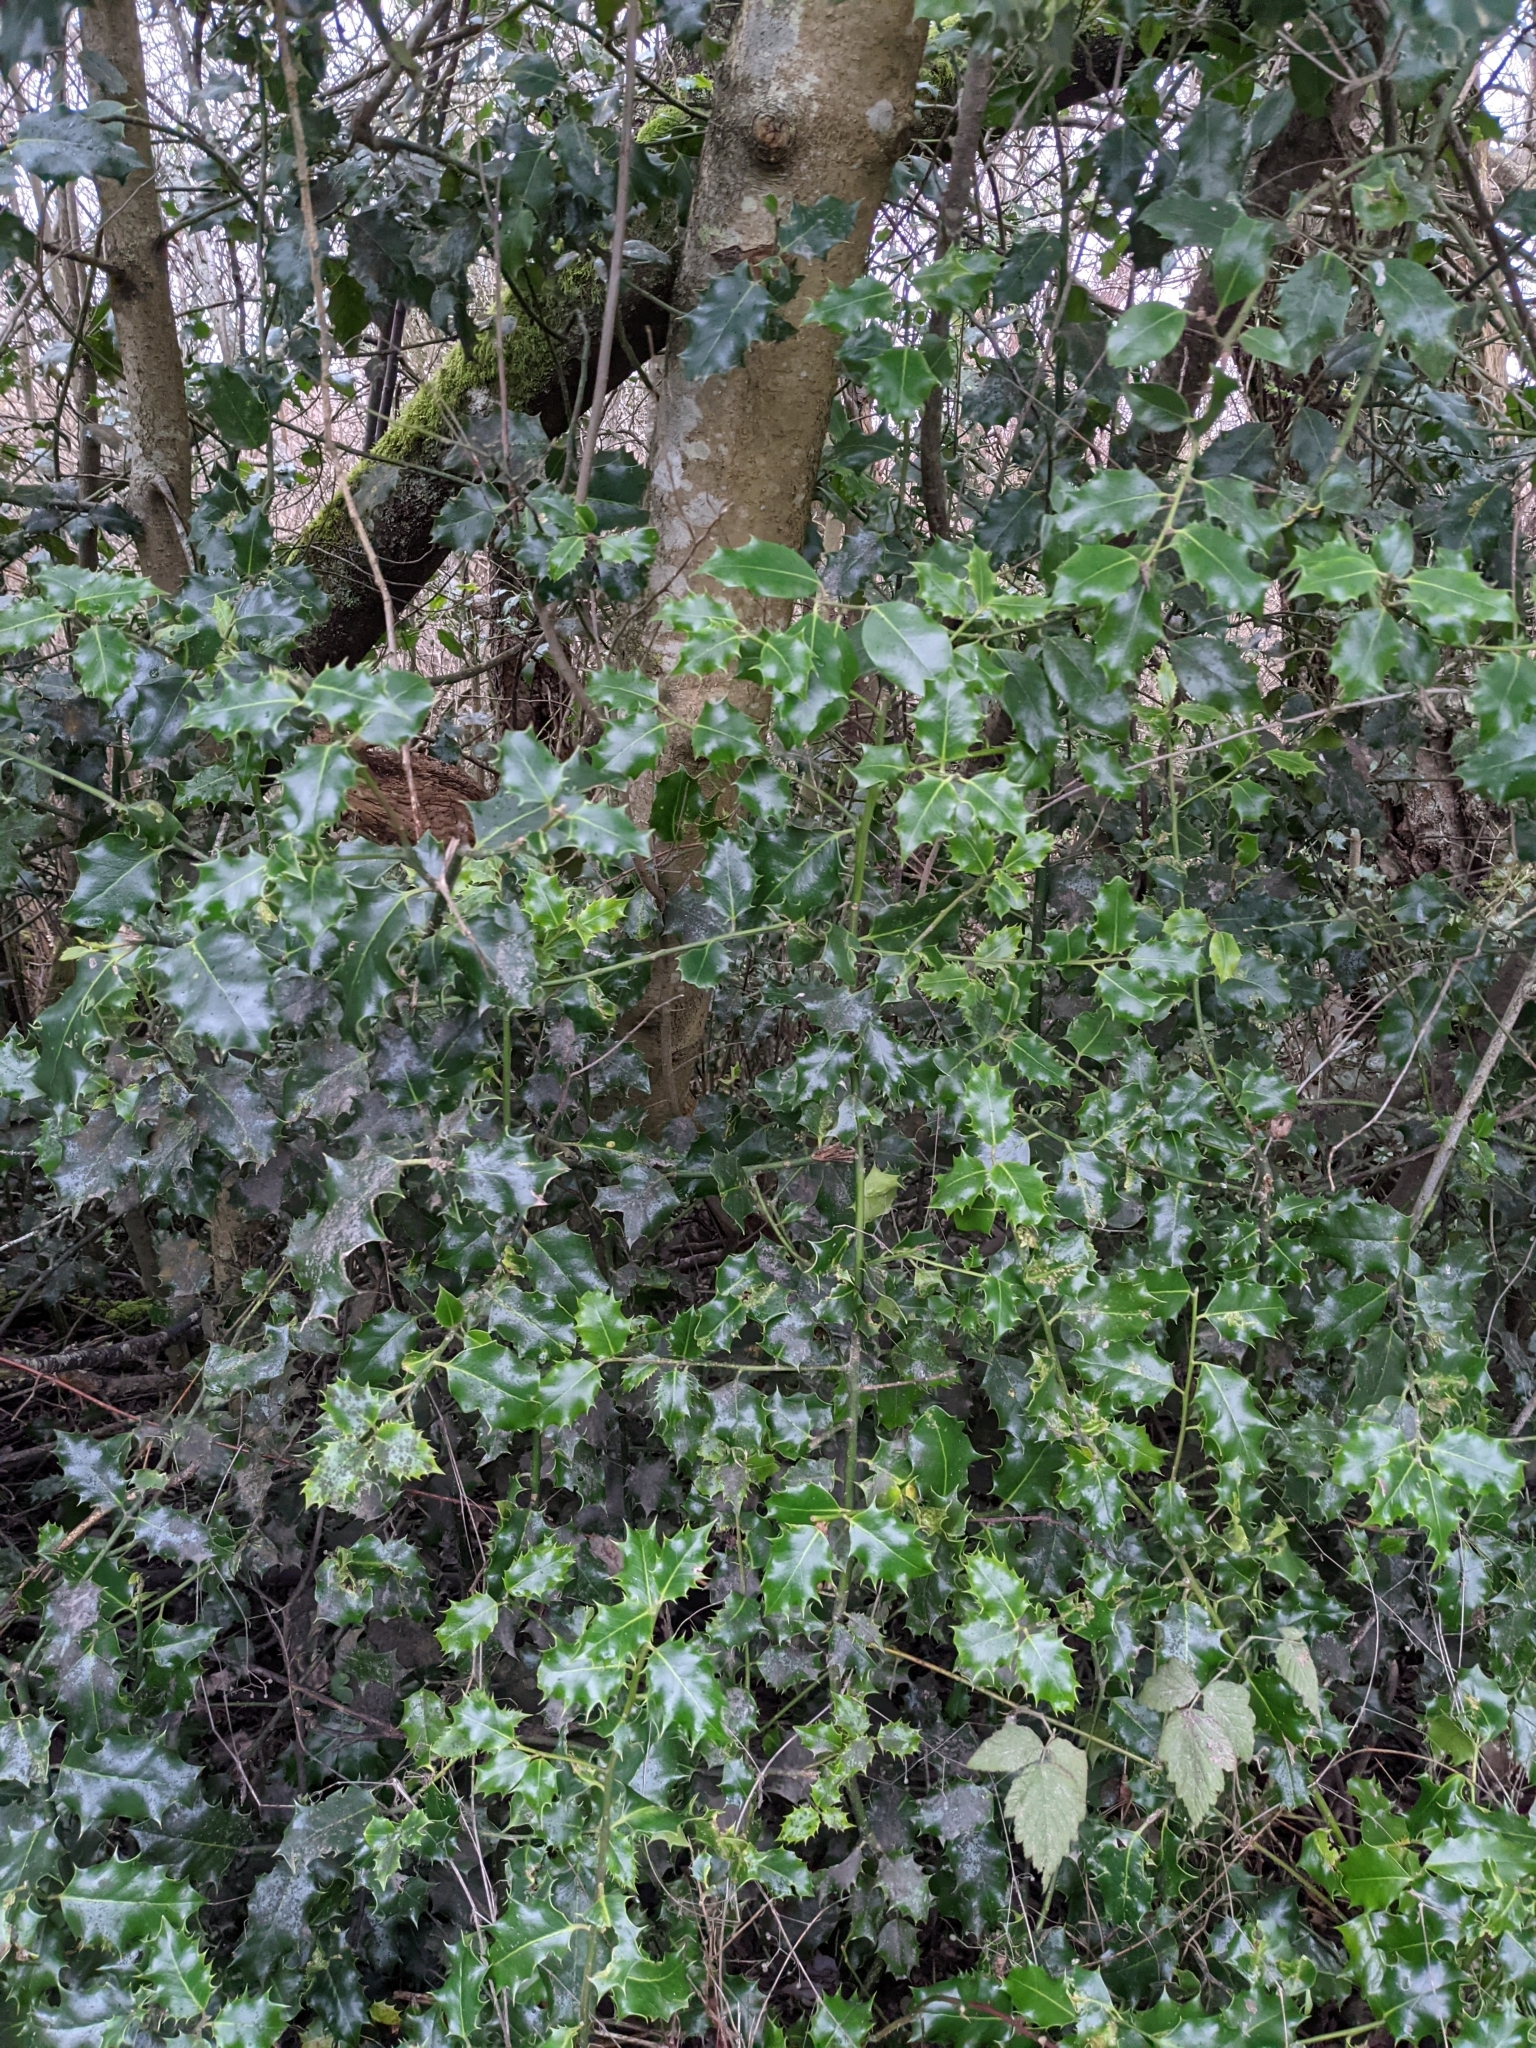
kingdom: Plantae
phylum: Tracheophyta
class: Magnoliopsida
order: Aquifoliales
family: Aquifoliaceae
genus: Ilex
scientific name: Ilex aquifolium
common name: English holly
